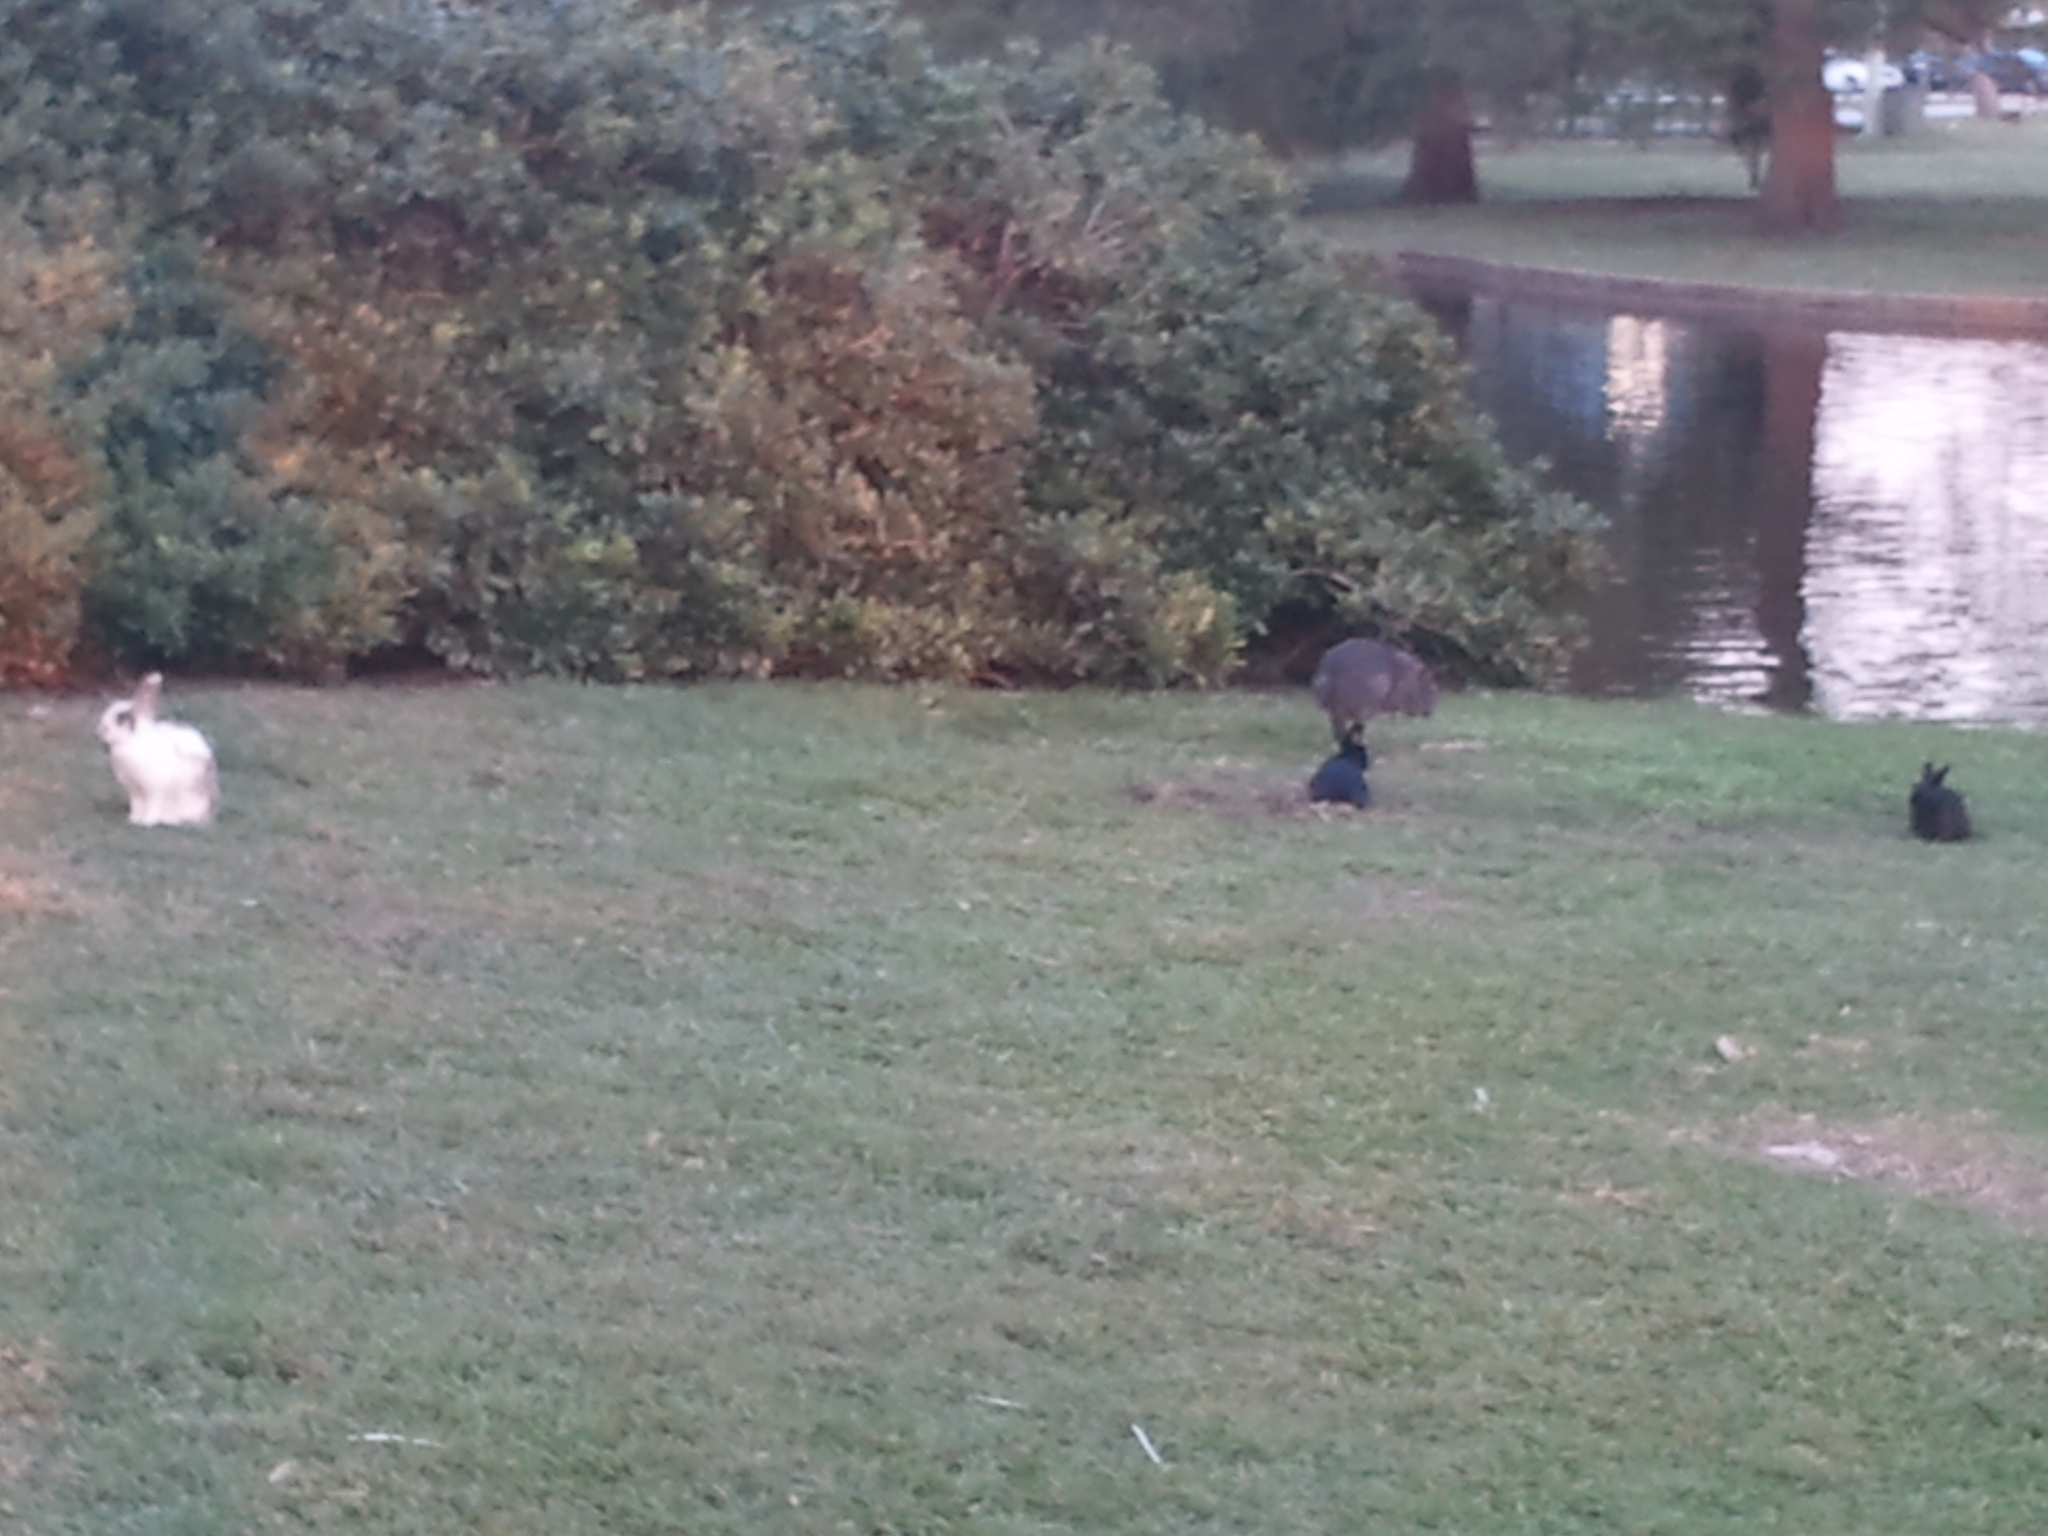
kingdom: Animalia
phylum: Chordata
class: Mammalia
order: Lagomorpha
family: Leporidae
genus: Oryctolagus
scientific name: Oryctolagus cuniculus
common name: European rabbit
